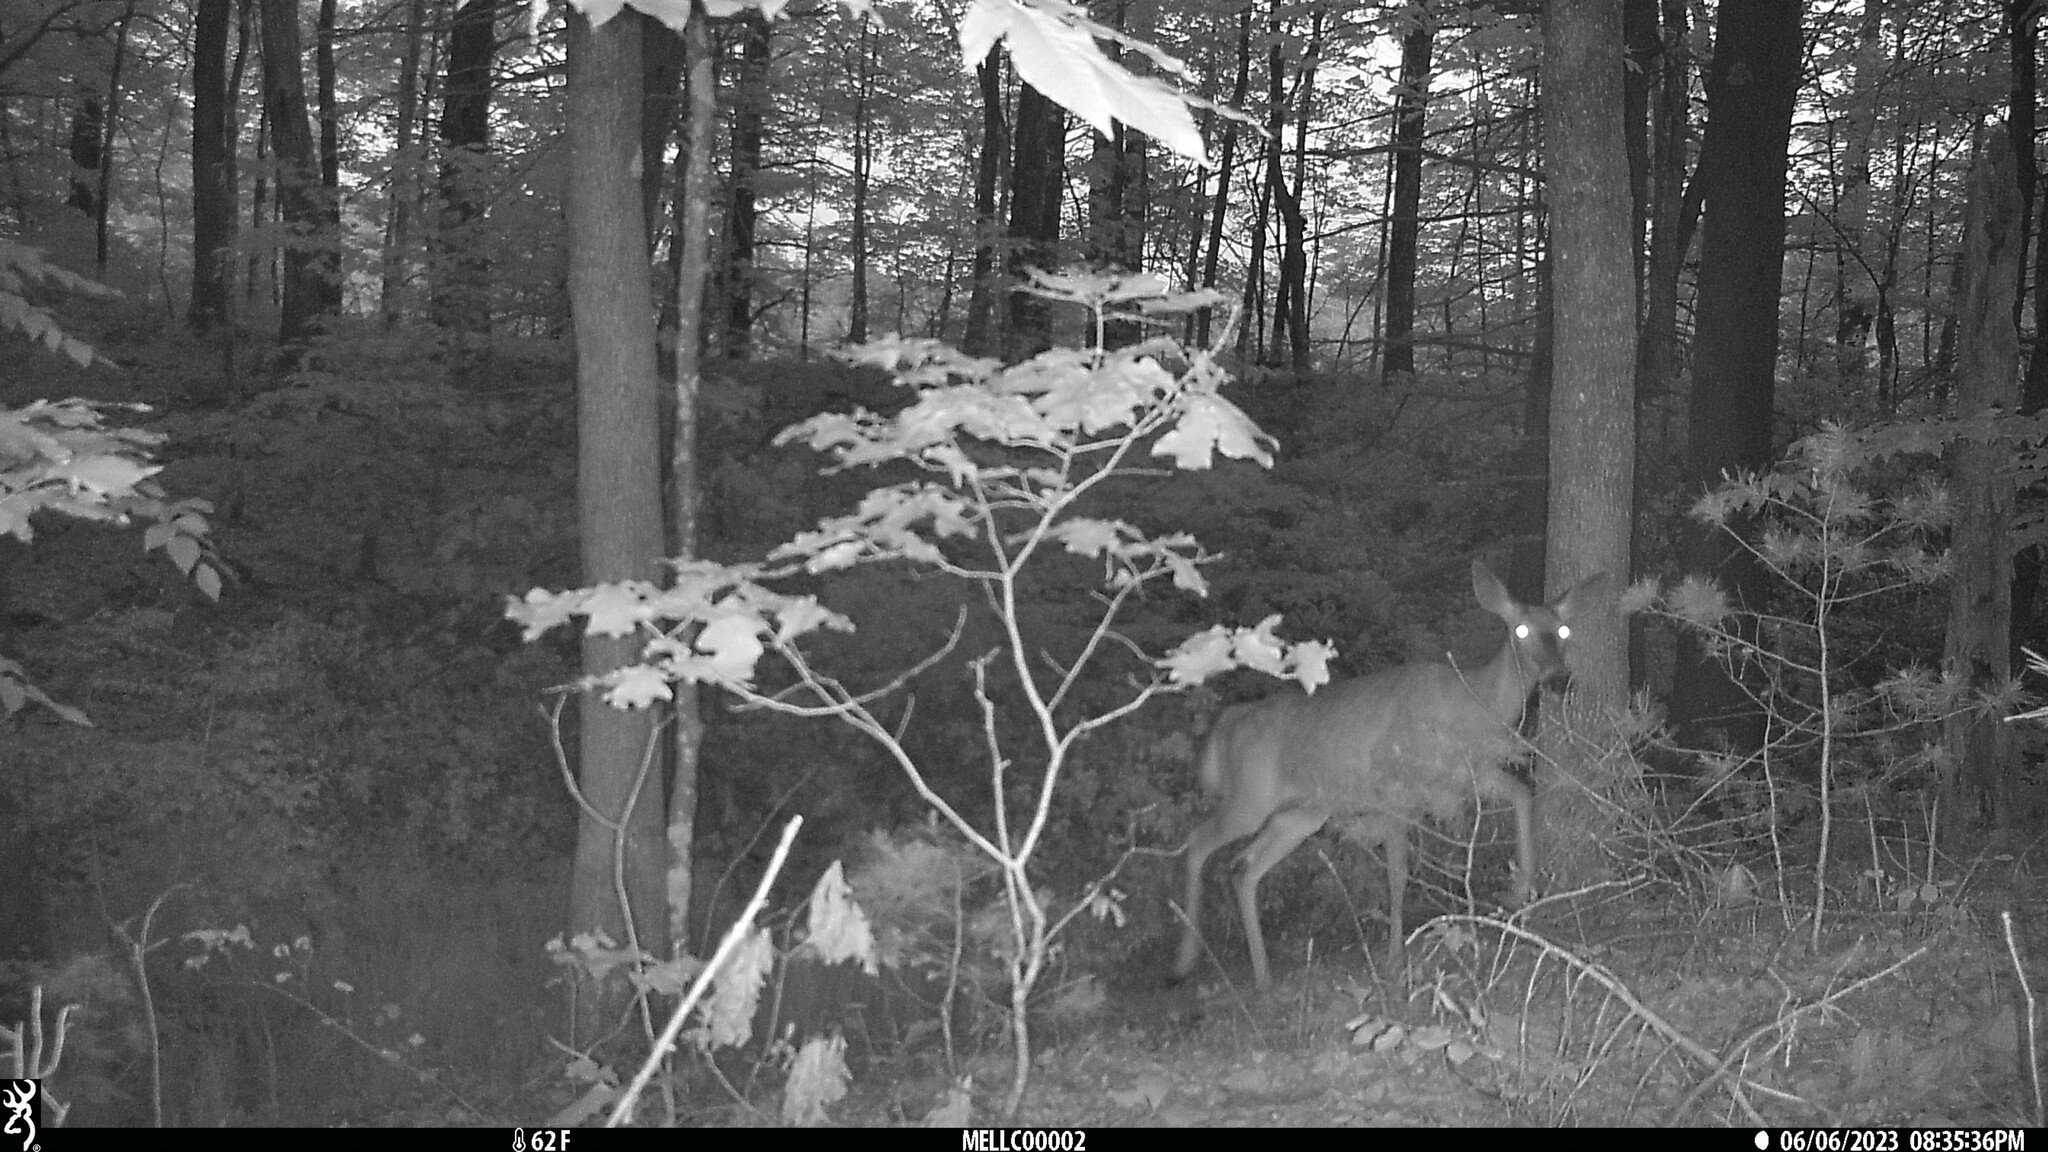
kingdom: Animalia
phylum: Chordata
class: Mammalia
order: Artiodactyla
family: Cervidae
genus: Odocoileus
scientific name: Odocoileus virginianus
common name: White-tailed deer
